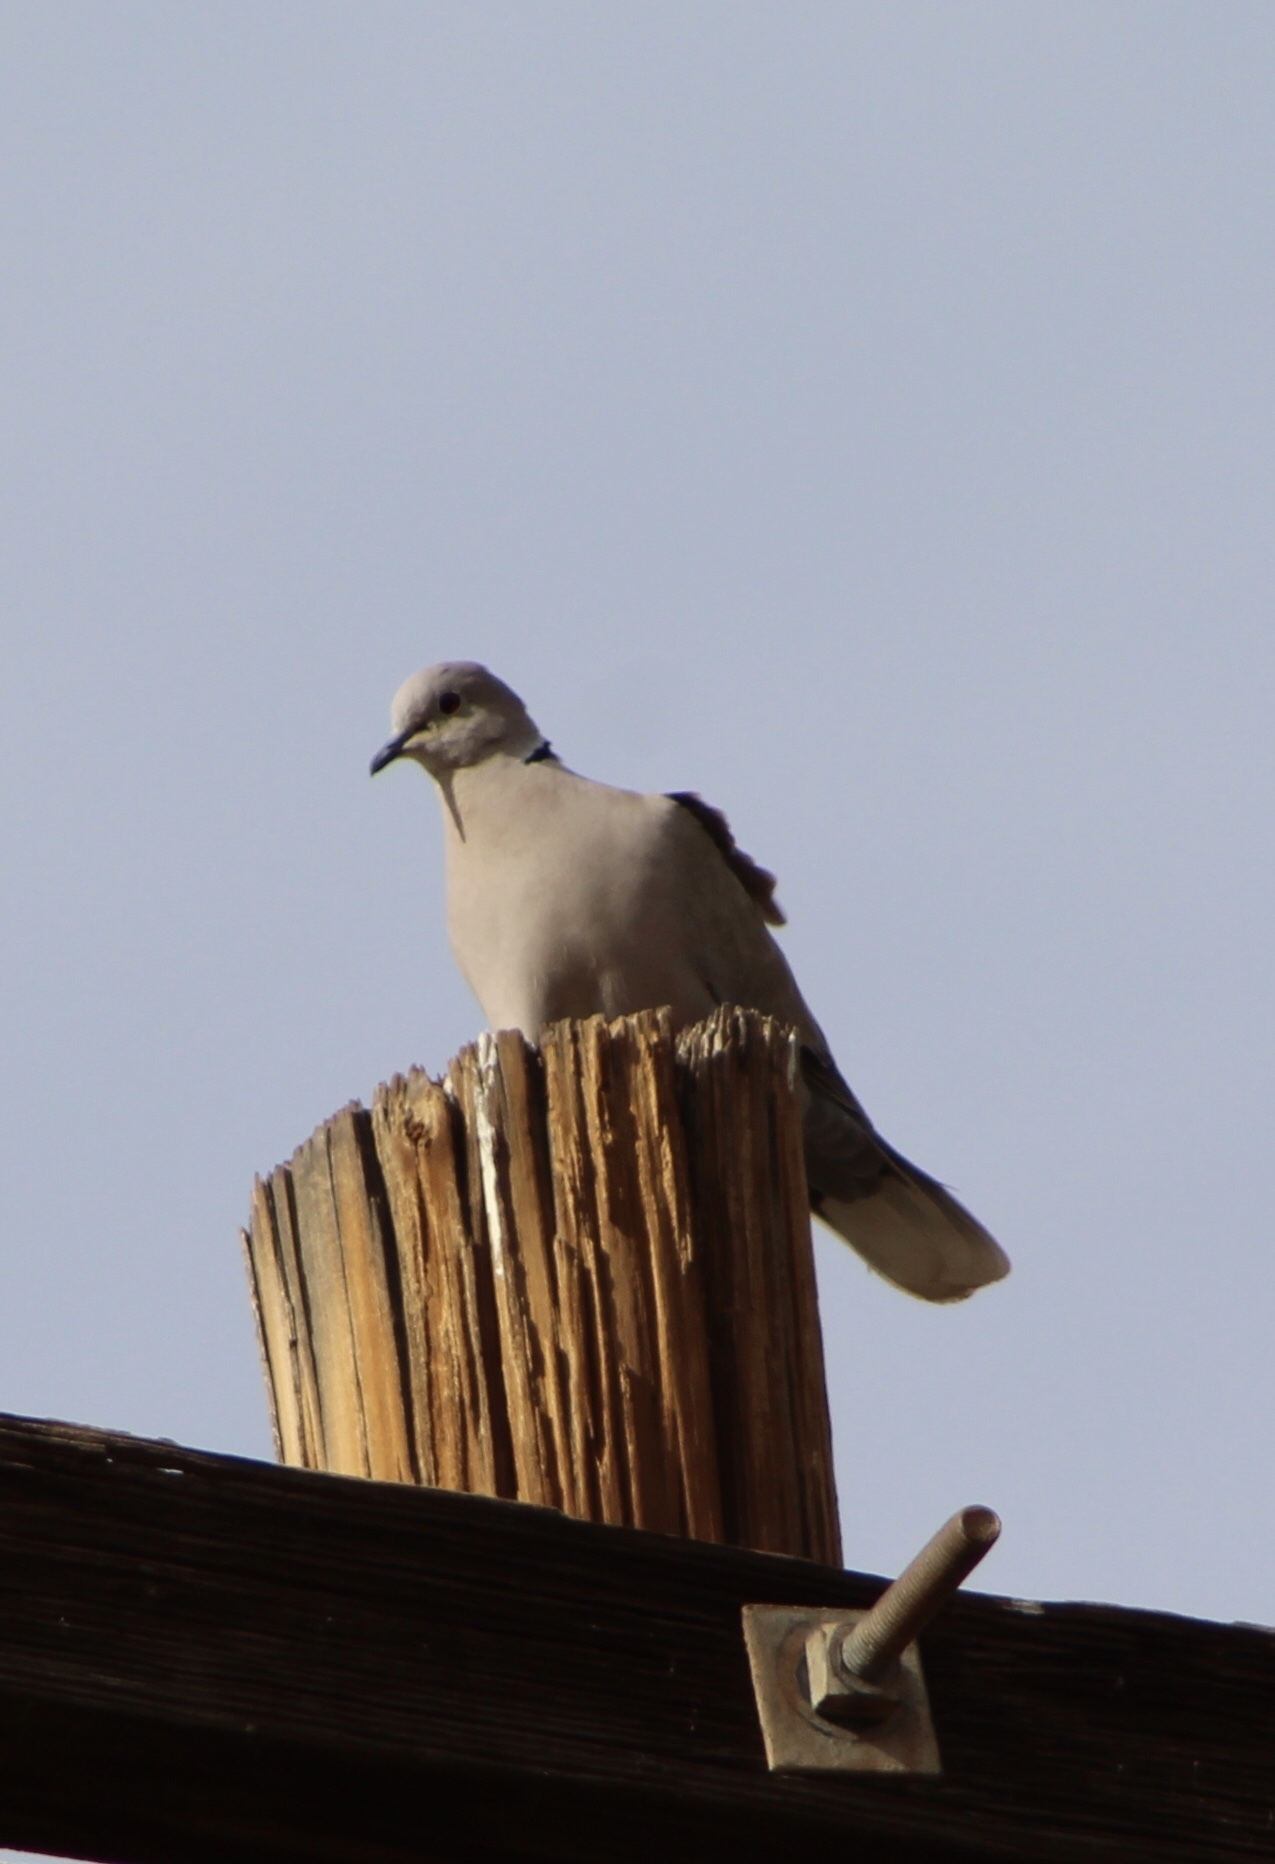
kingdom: Animalia
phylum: Chordata
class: Aves
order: Columbiformes
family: Columbidae
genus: Streptopelia
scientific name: Streptopelia decaocto
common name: Eurasian collared dove
